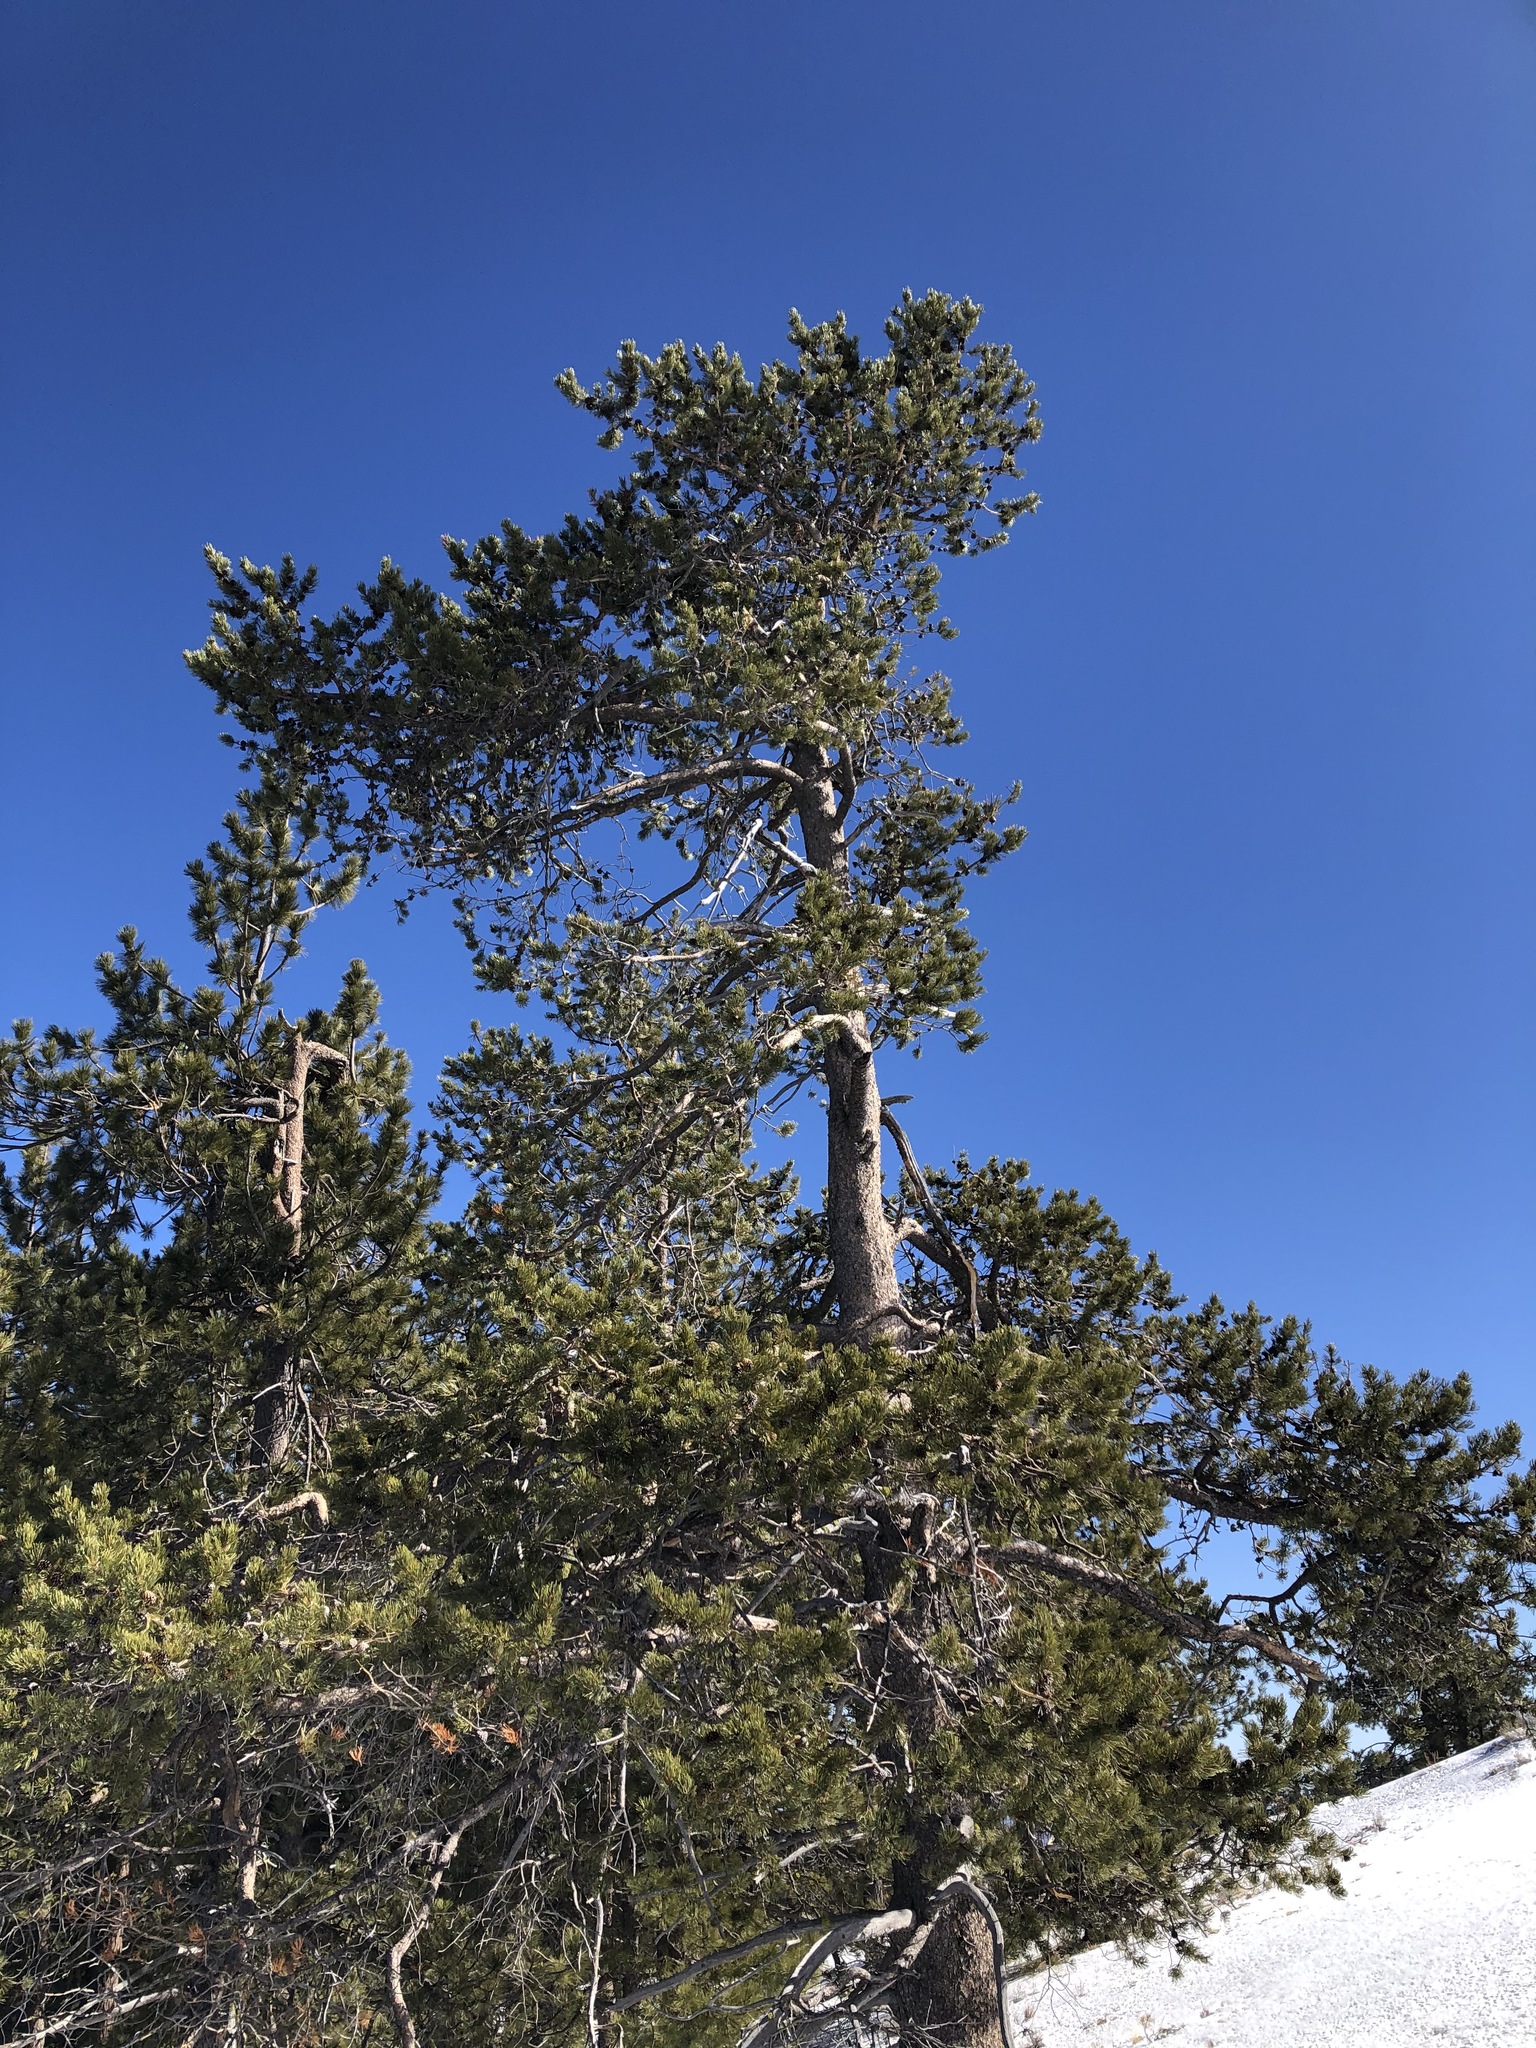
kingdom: Plantae
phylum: Tracheophyta
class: Pinopsida
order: Pinales
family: Pinaceae
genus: Pinus
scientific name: Pinus contorta
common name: Lodgepole pine
